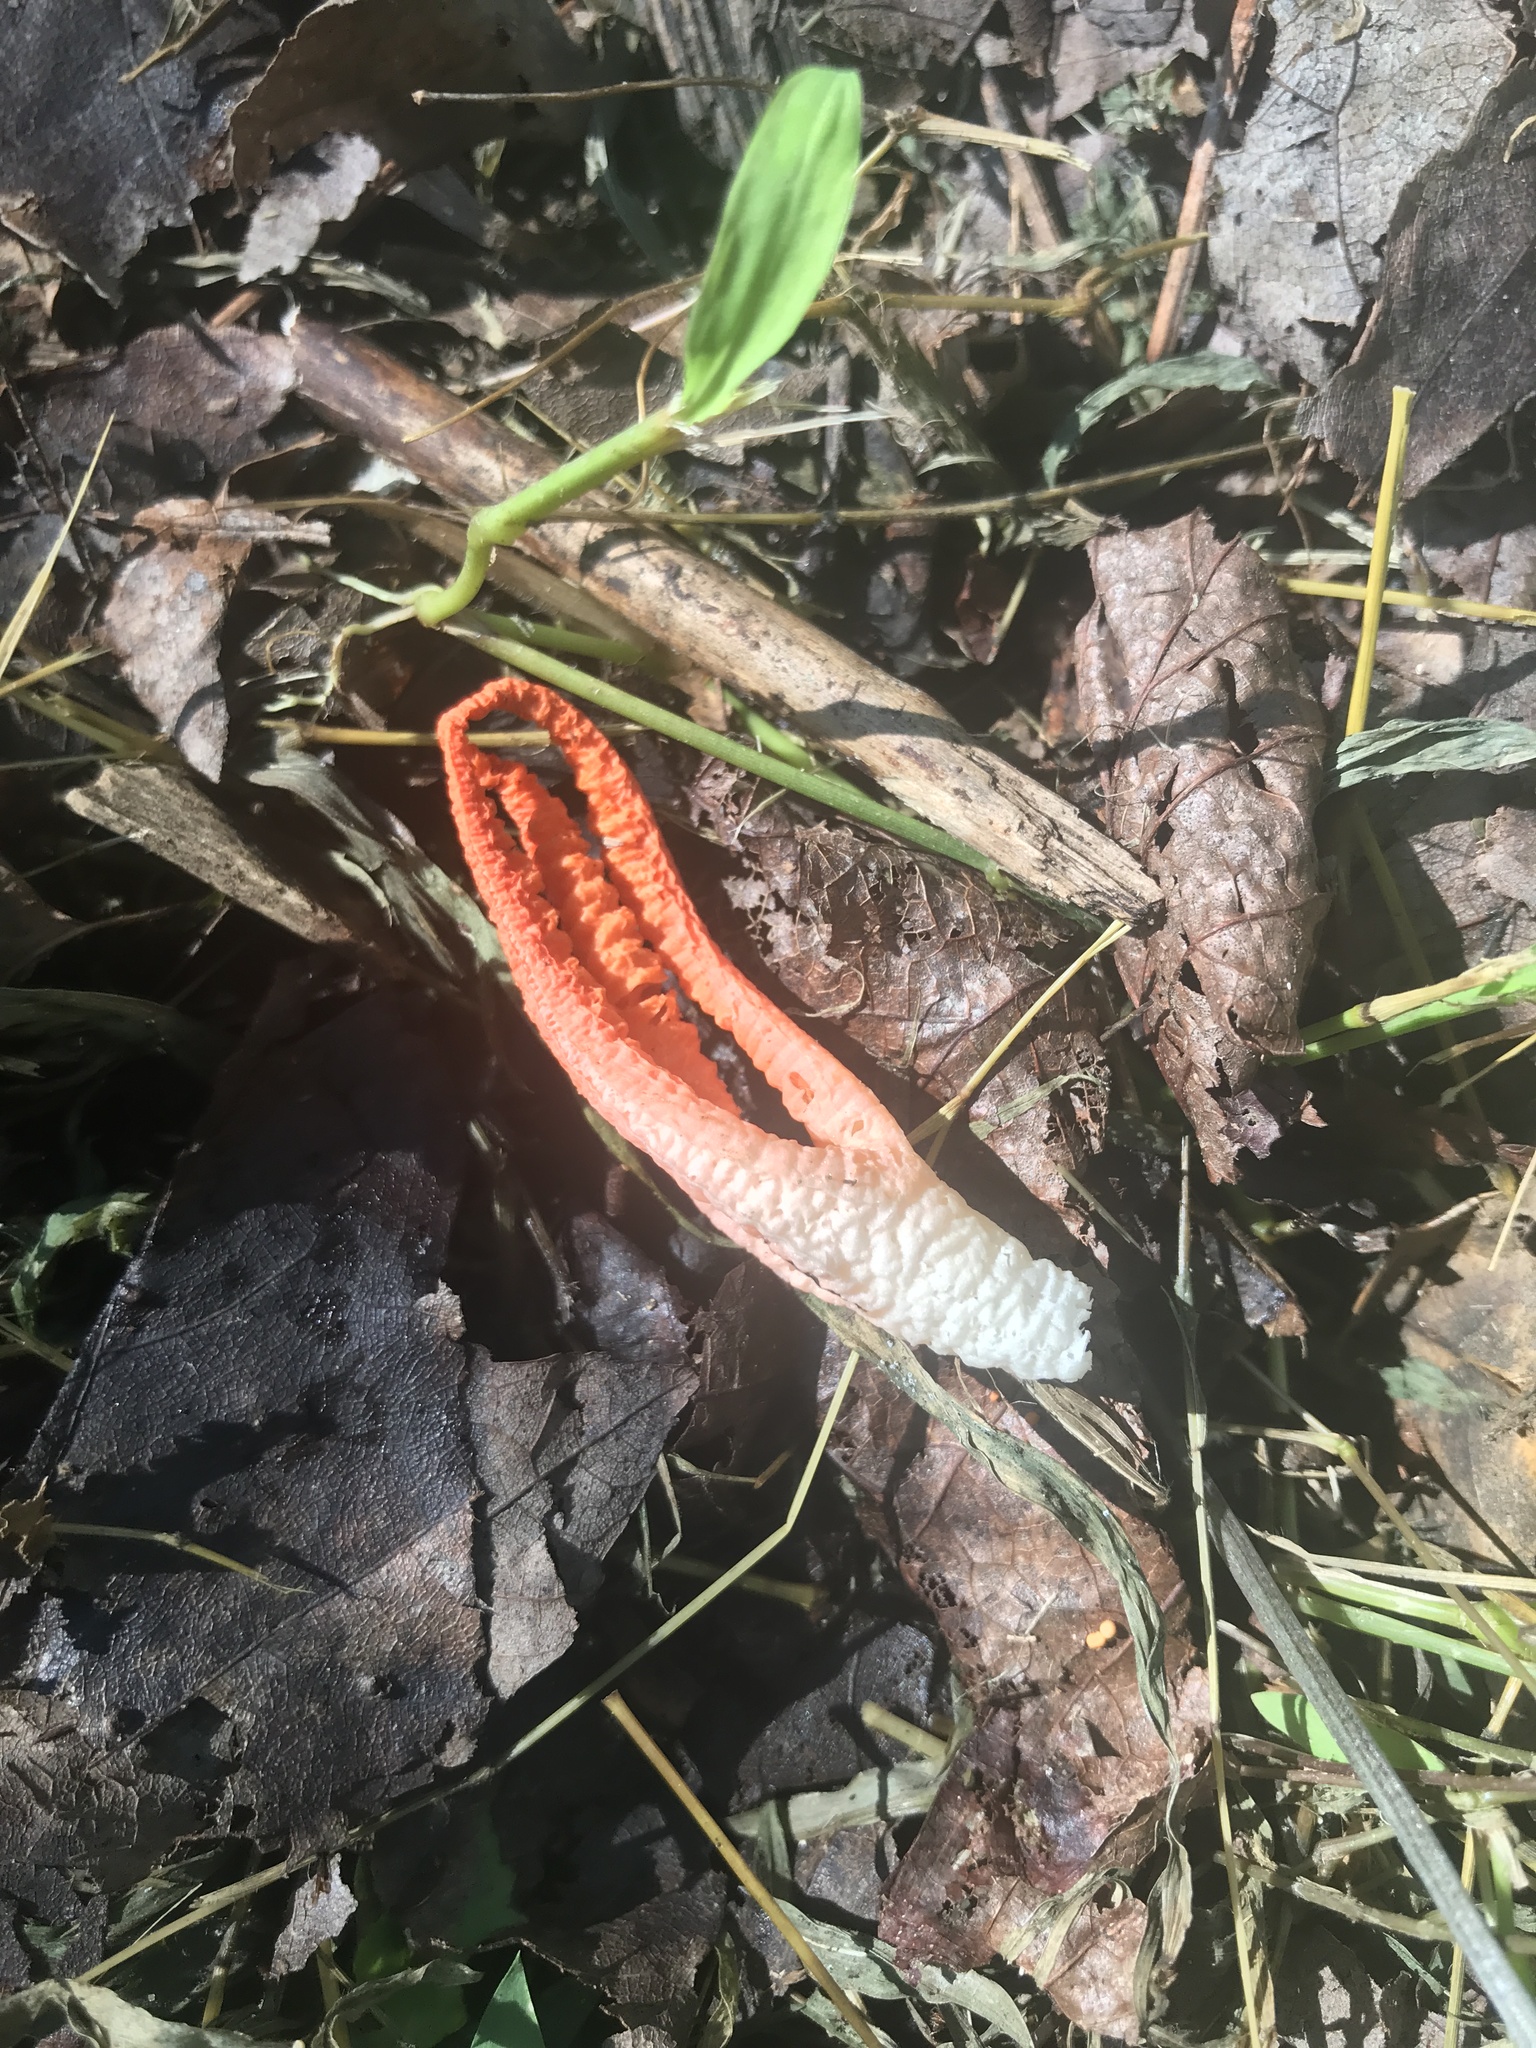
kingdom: Fungi
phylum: Basidiomycota
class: Agaricomycetes
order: Phallales
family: Phallaceae
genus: Pseudocolus
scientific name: Pseudocolus fusiformis
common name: Stinky squid
